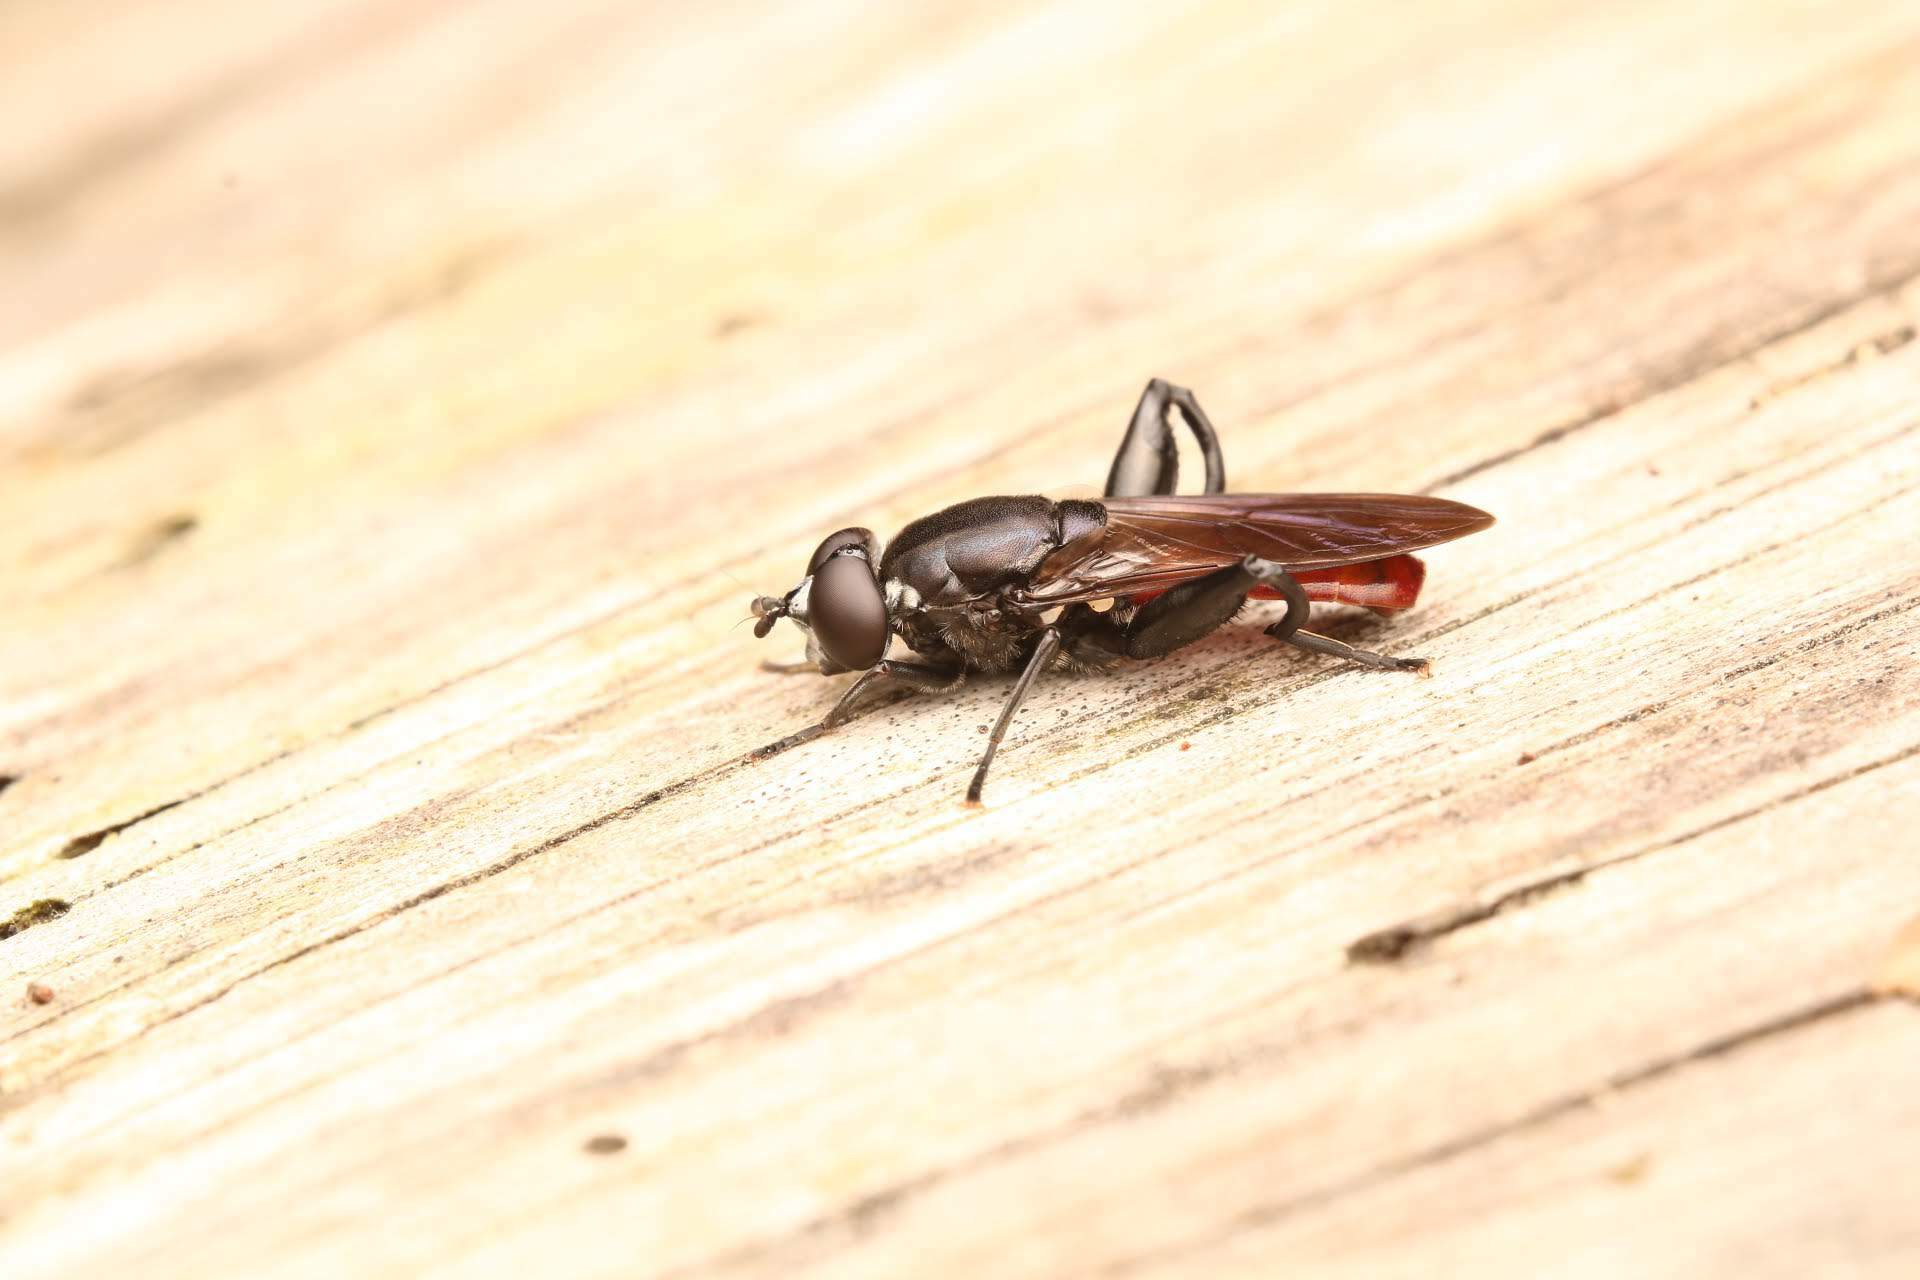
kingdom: Animalia
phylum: Arthropoda
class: Insecta
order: Diptera
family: Syrphidae
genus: Chalcosyrphus
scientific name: Chalcosyrphus piger
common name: Short-haired leafwalker
